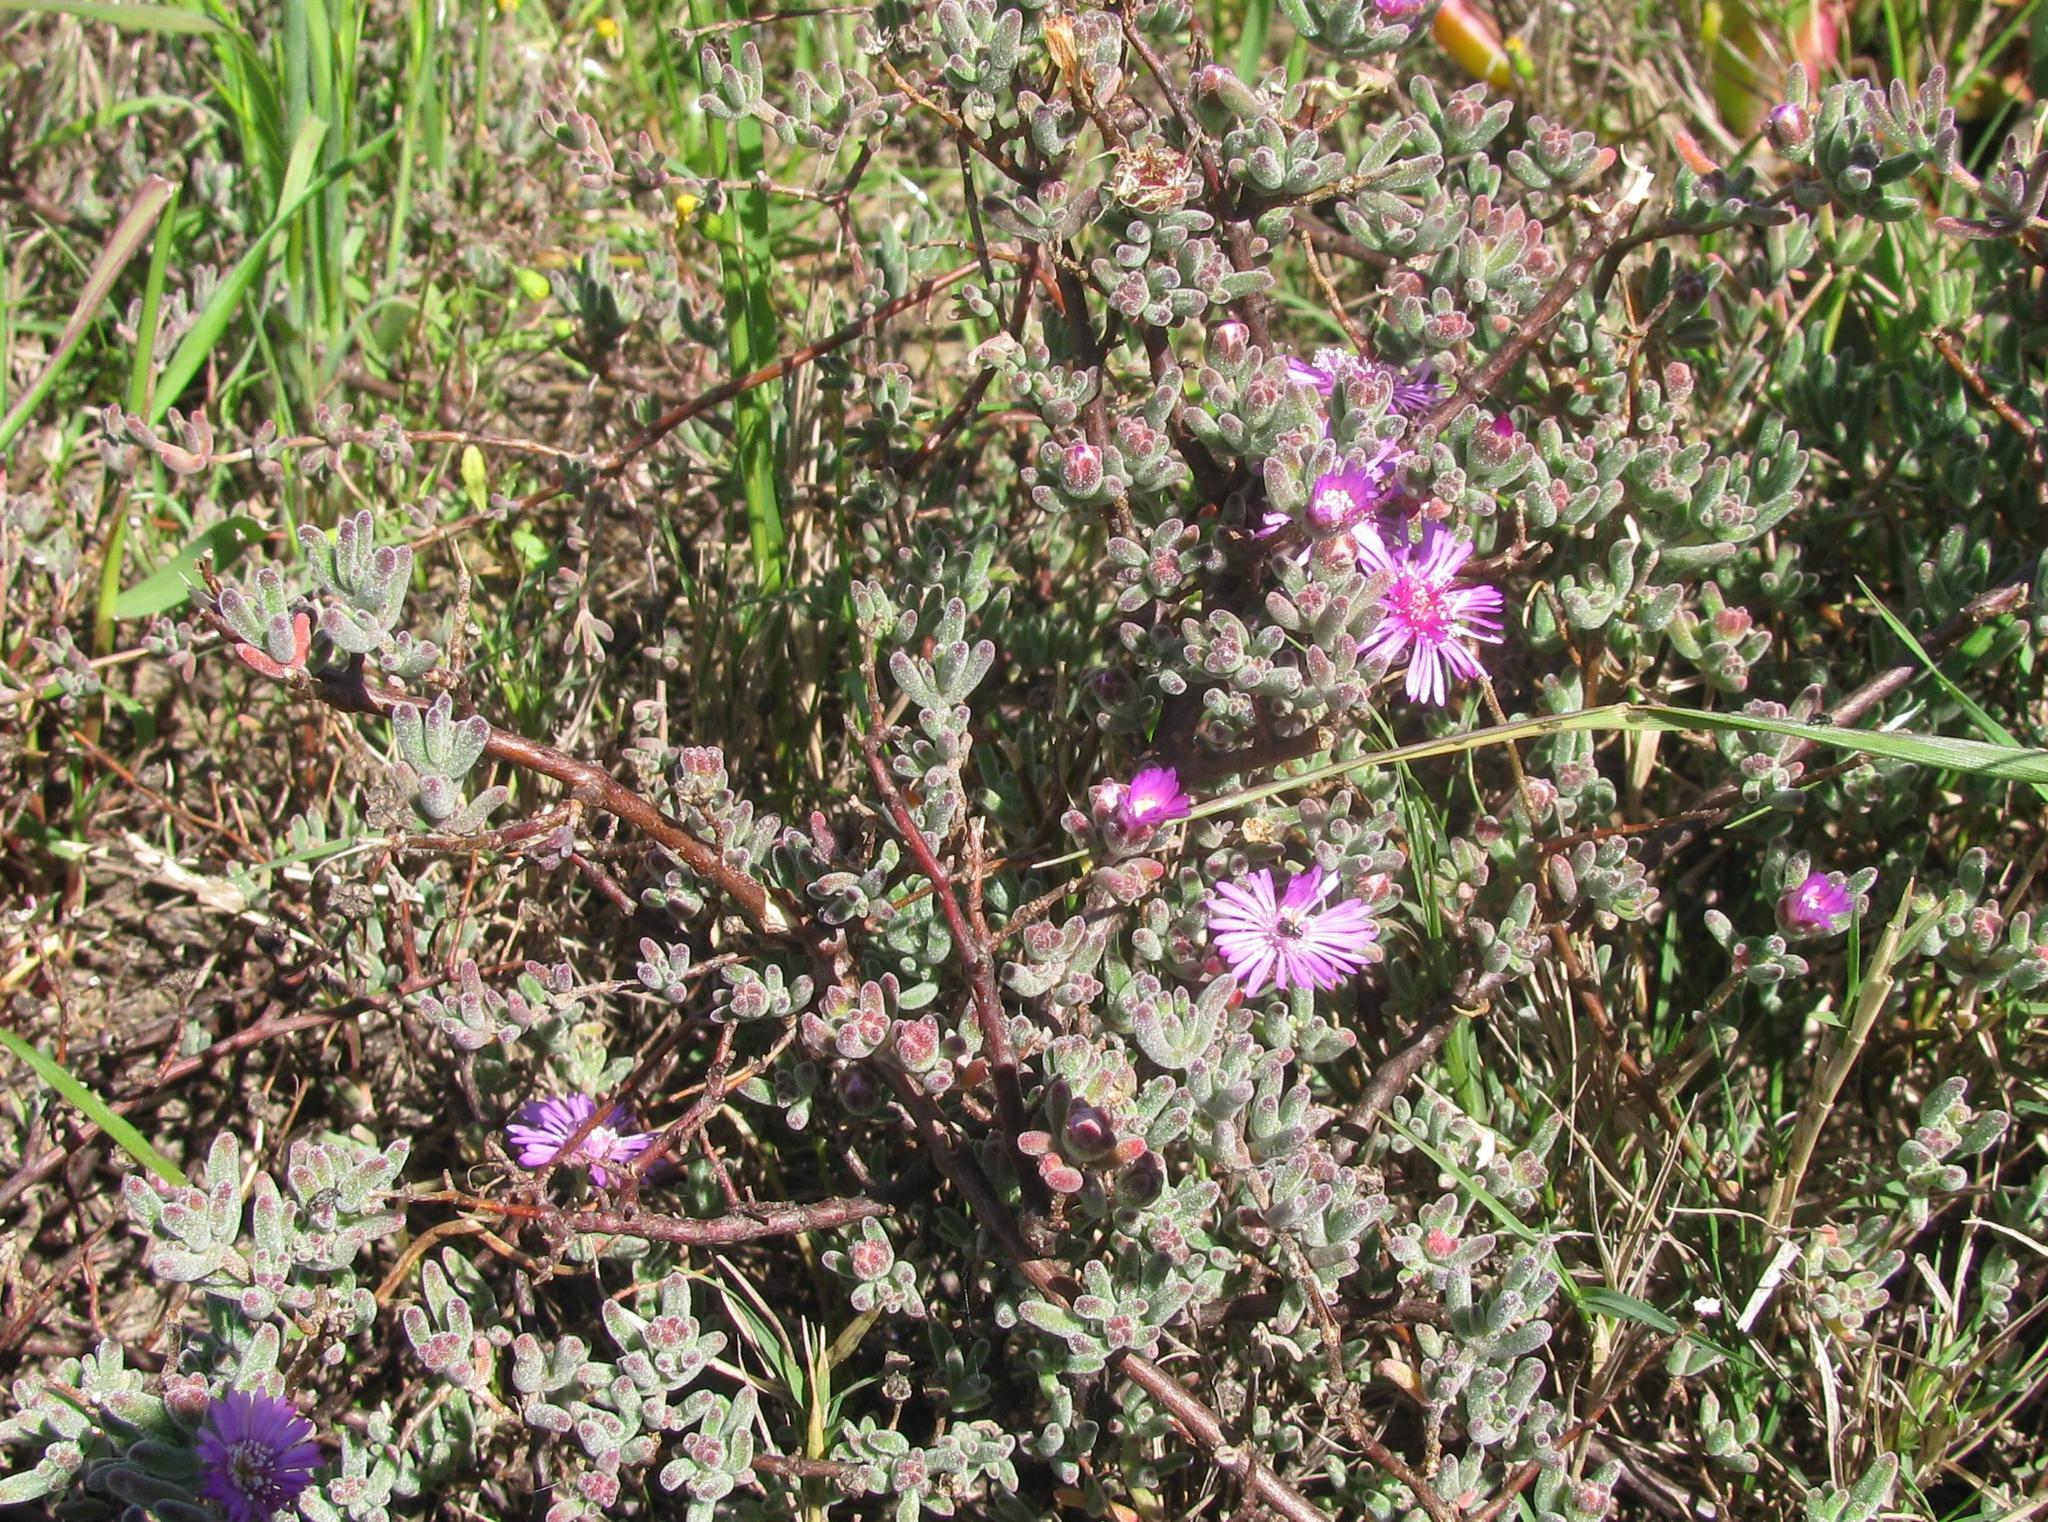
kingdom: Plantae
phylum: Tracheophyta
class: Magnoliopsida
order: Caryophyllales
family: Aizoaceae
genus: Drosanthemum
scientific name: Drosanthemum ambiguum
